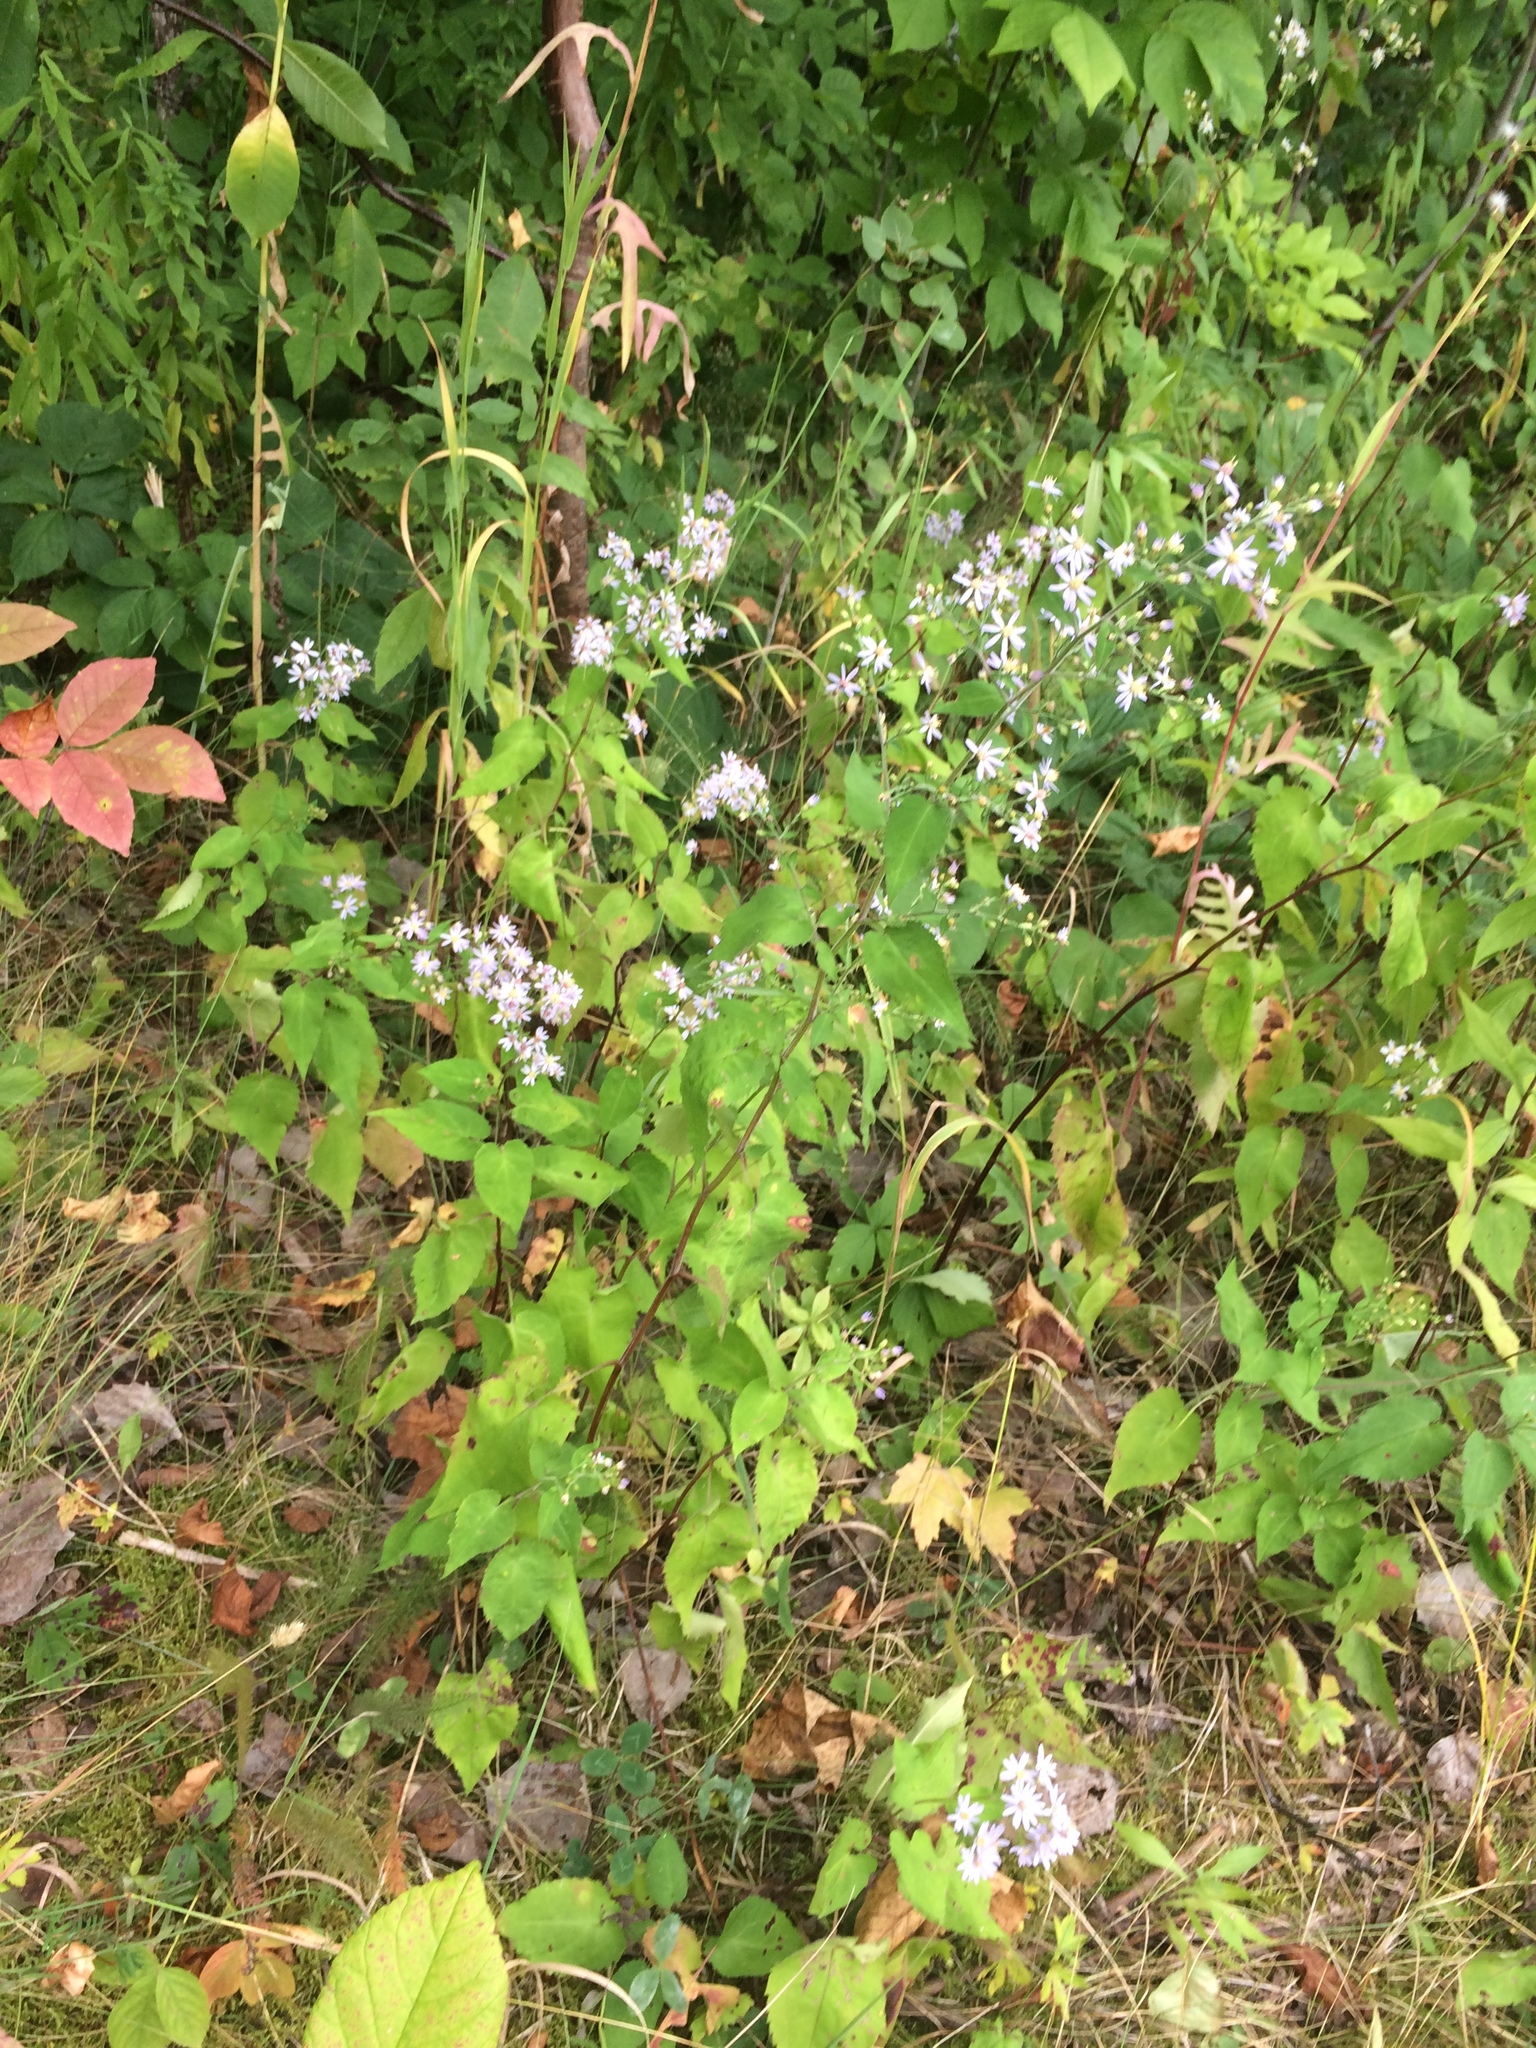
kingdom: Plantae
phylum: Tracheophyta
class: Magnoliopsida
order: Asterales
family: Asteraceae
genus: Symphyotrichum
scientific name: Symphyotrichum cordifolium
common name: Beeweed
